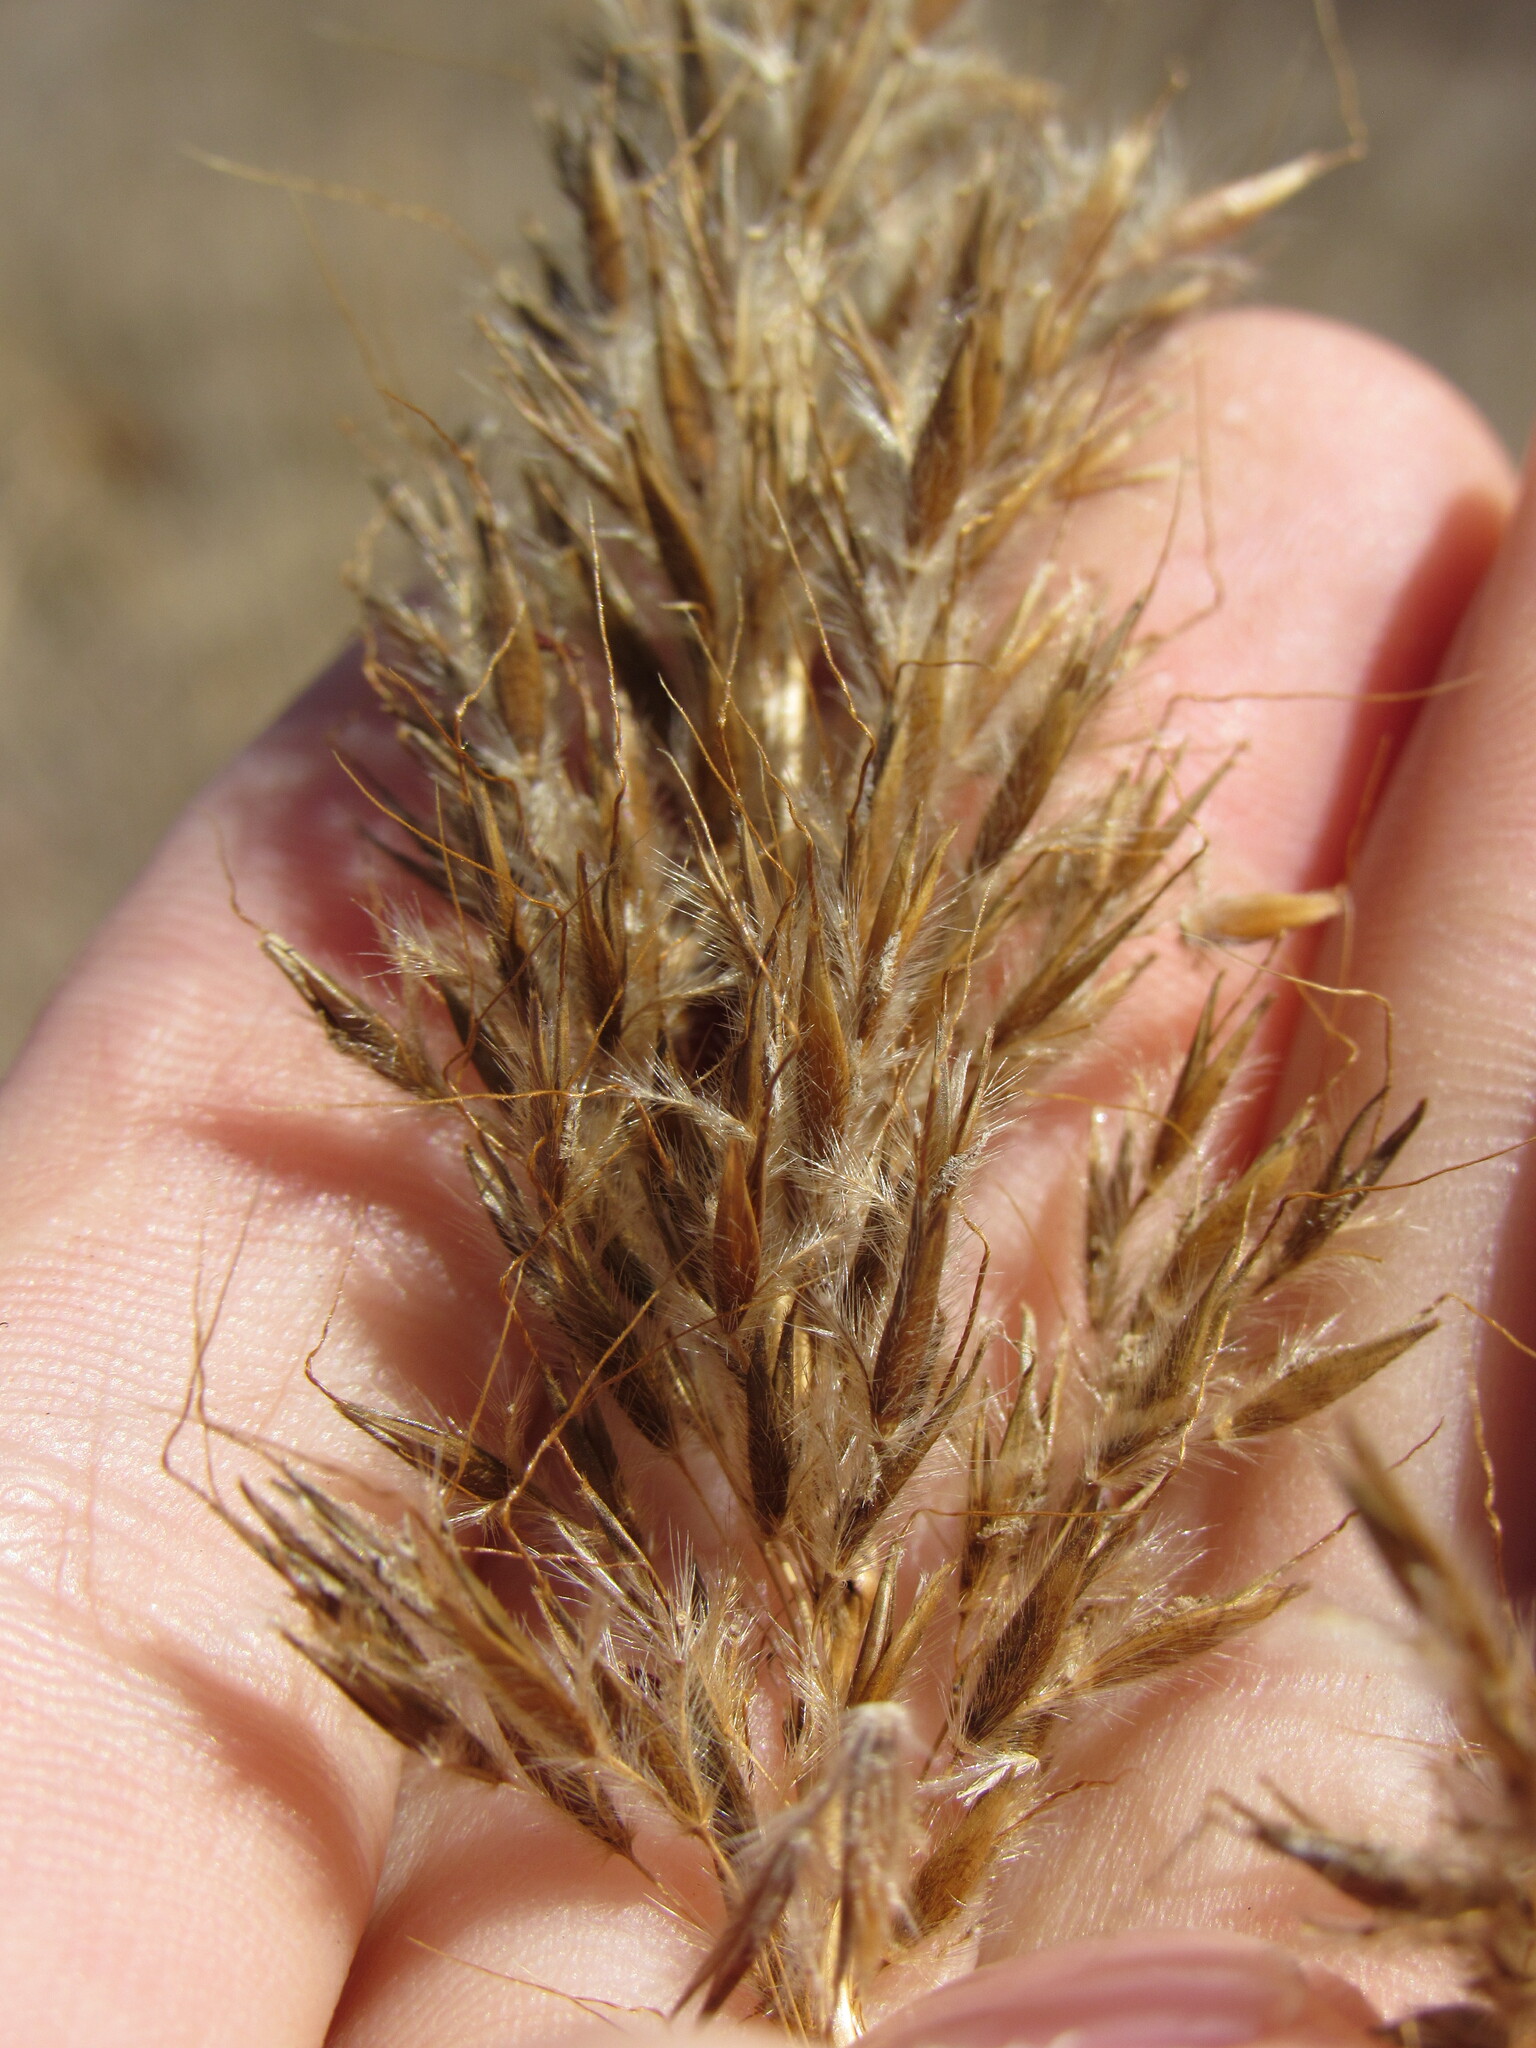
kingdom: Plantae
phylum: Tracheophyta
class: Liliopsida
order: Poales
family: Poaceae
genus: Sorghastrum
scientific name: Sorghastrum nutans
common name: Indian grass
